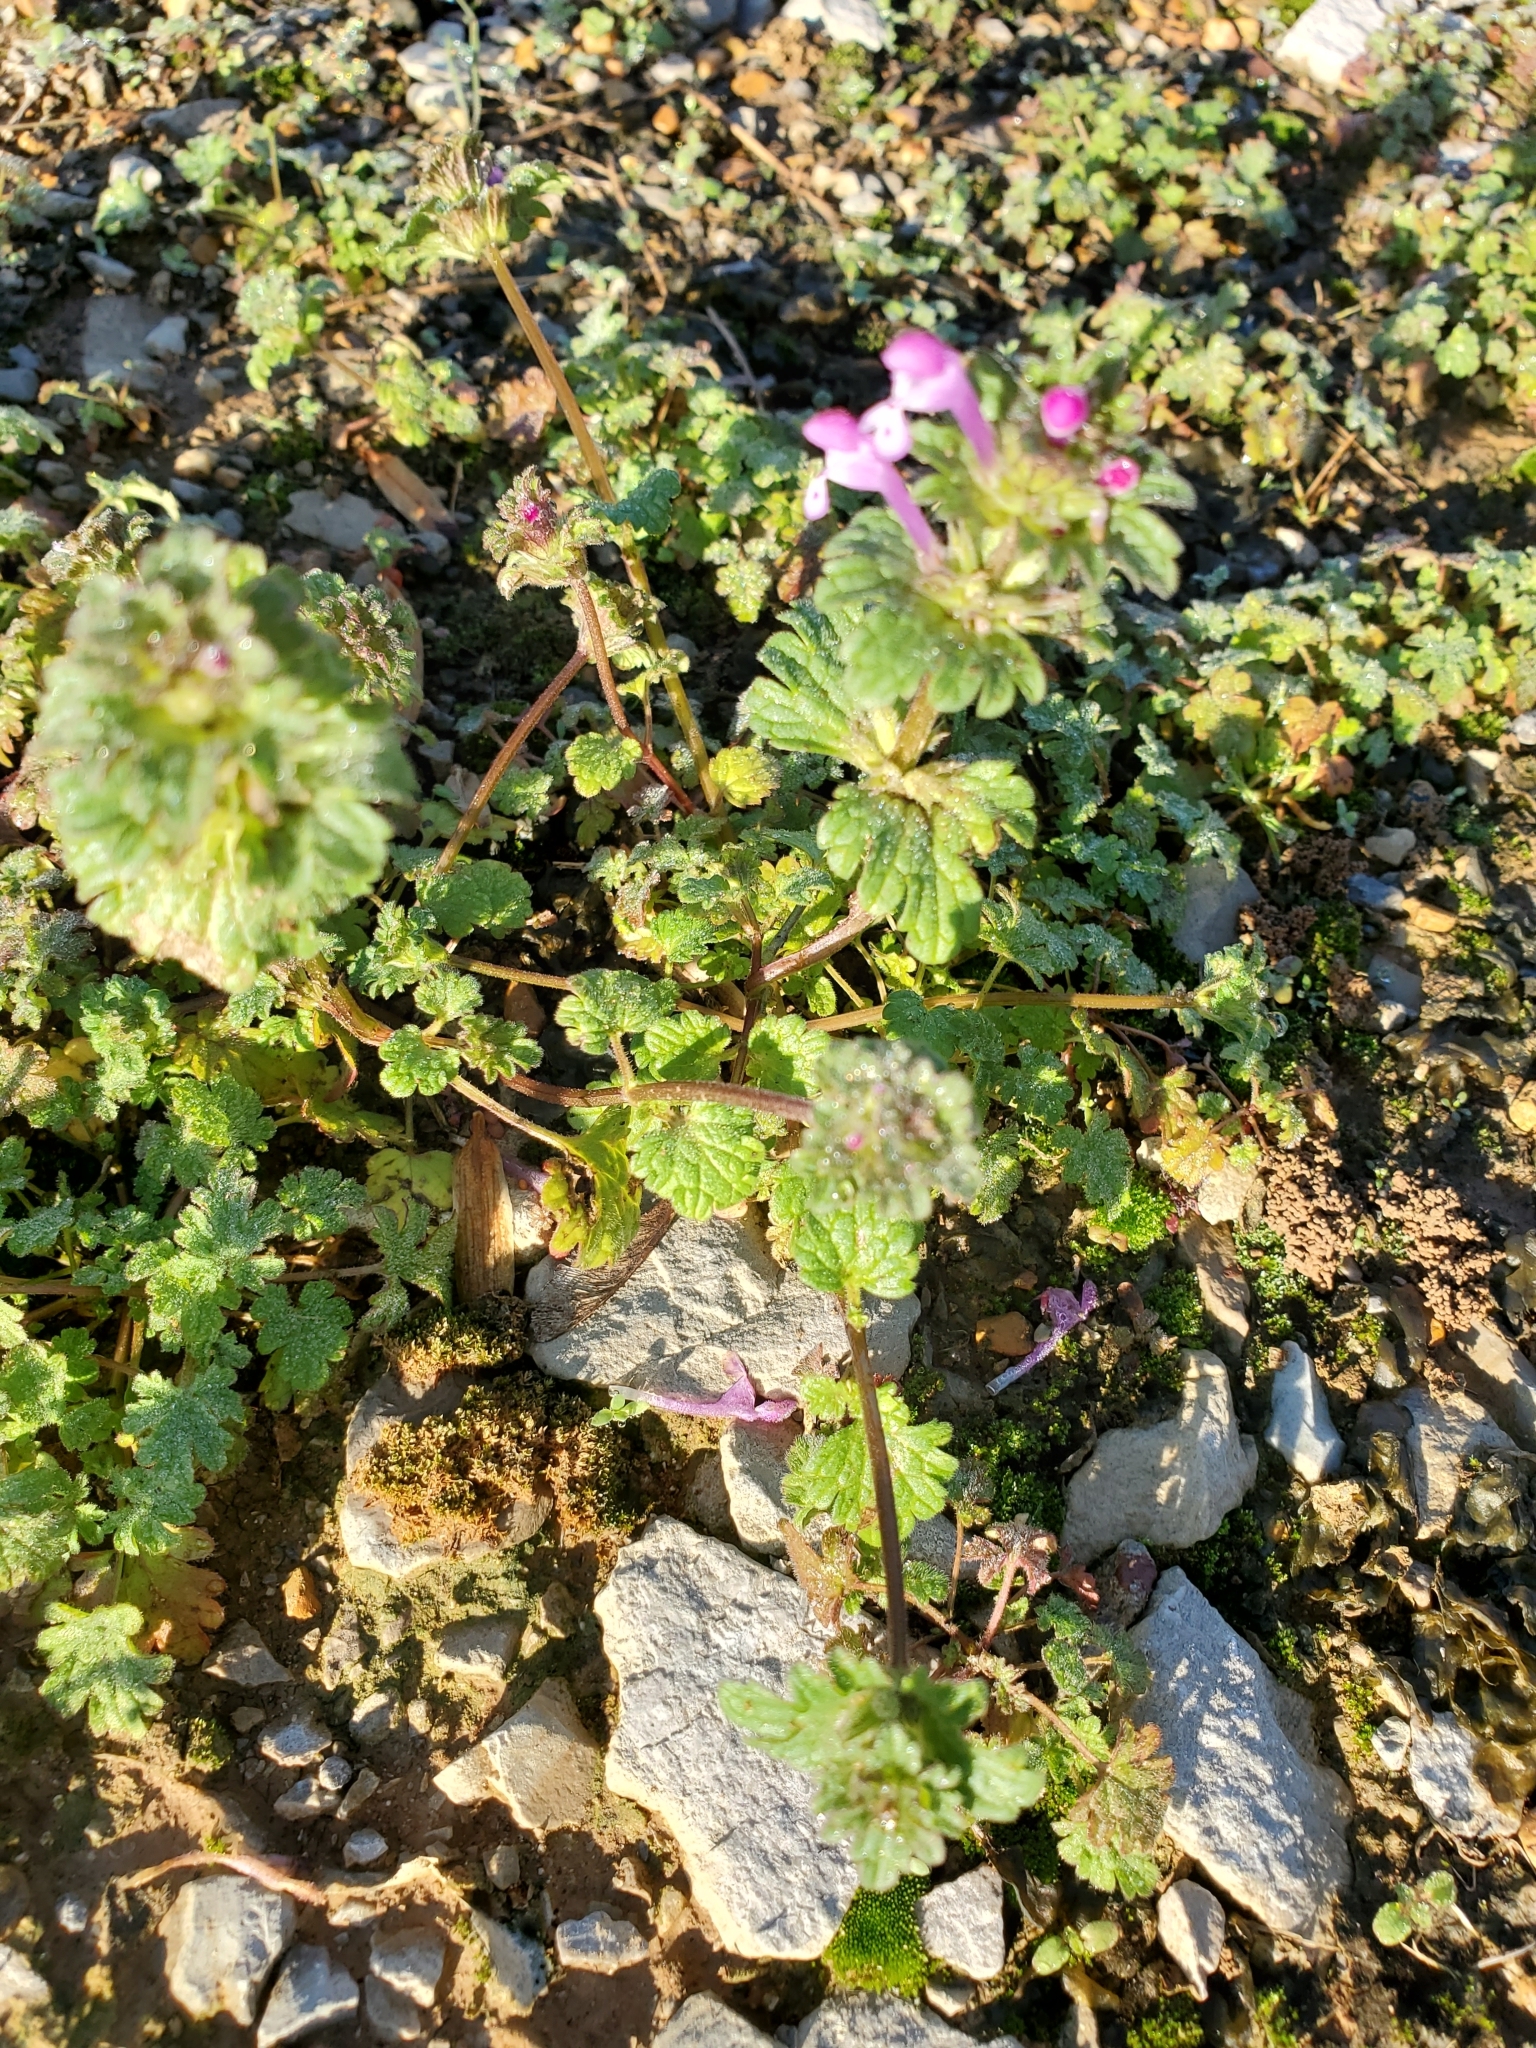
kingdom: Plantae
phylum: Tracheophyta
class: Magnoliopsida
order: Lamiales
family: Lamiaceae
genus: Lamium
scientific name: Lamium amplexicaule
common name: Henbit dead-nettle
